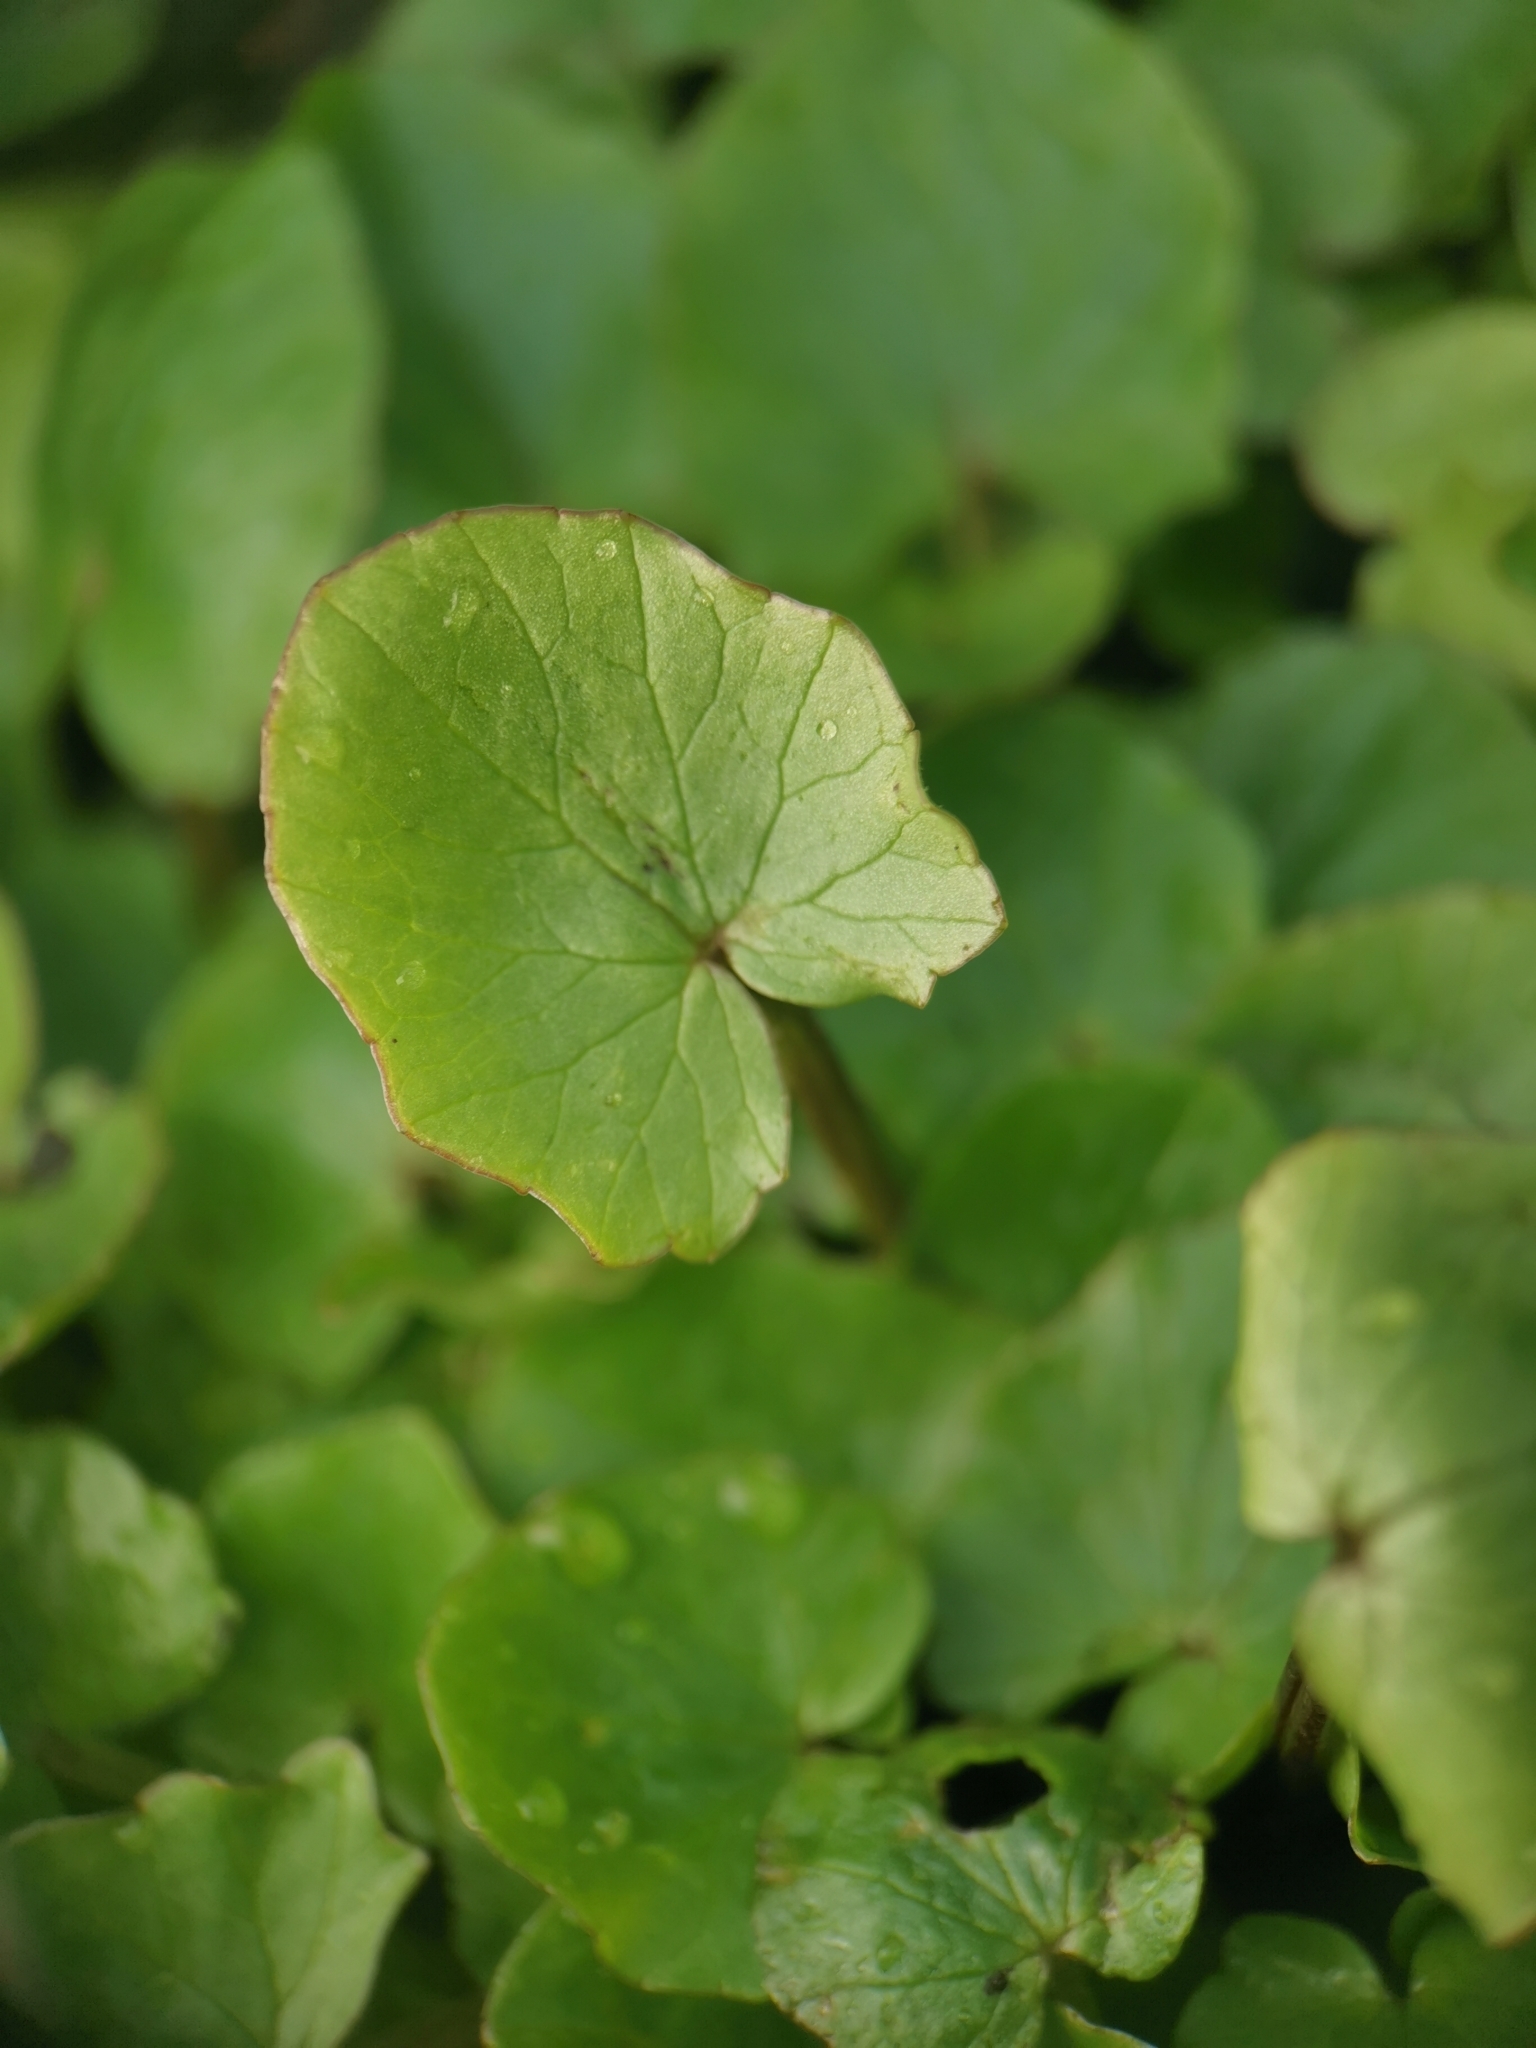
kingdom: Plantae
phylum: Tracheophyta
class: Magnoliopsida
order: Ranunculales
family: Ranunculaceae
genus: Ficaria
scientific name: Ficaria verna
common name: Lesser celandine
